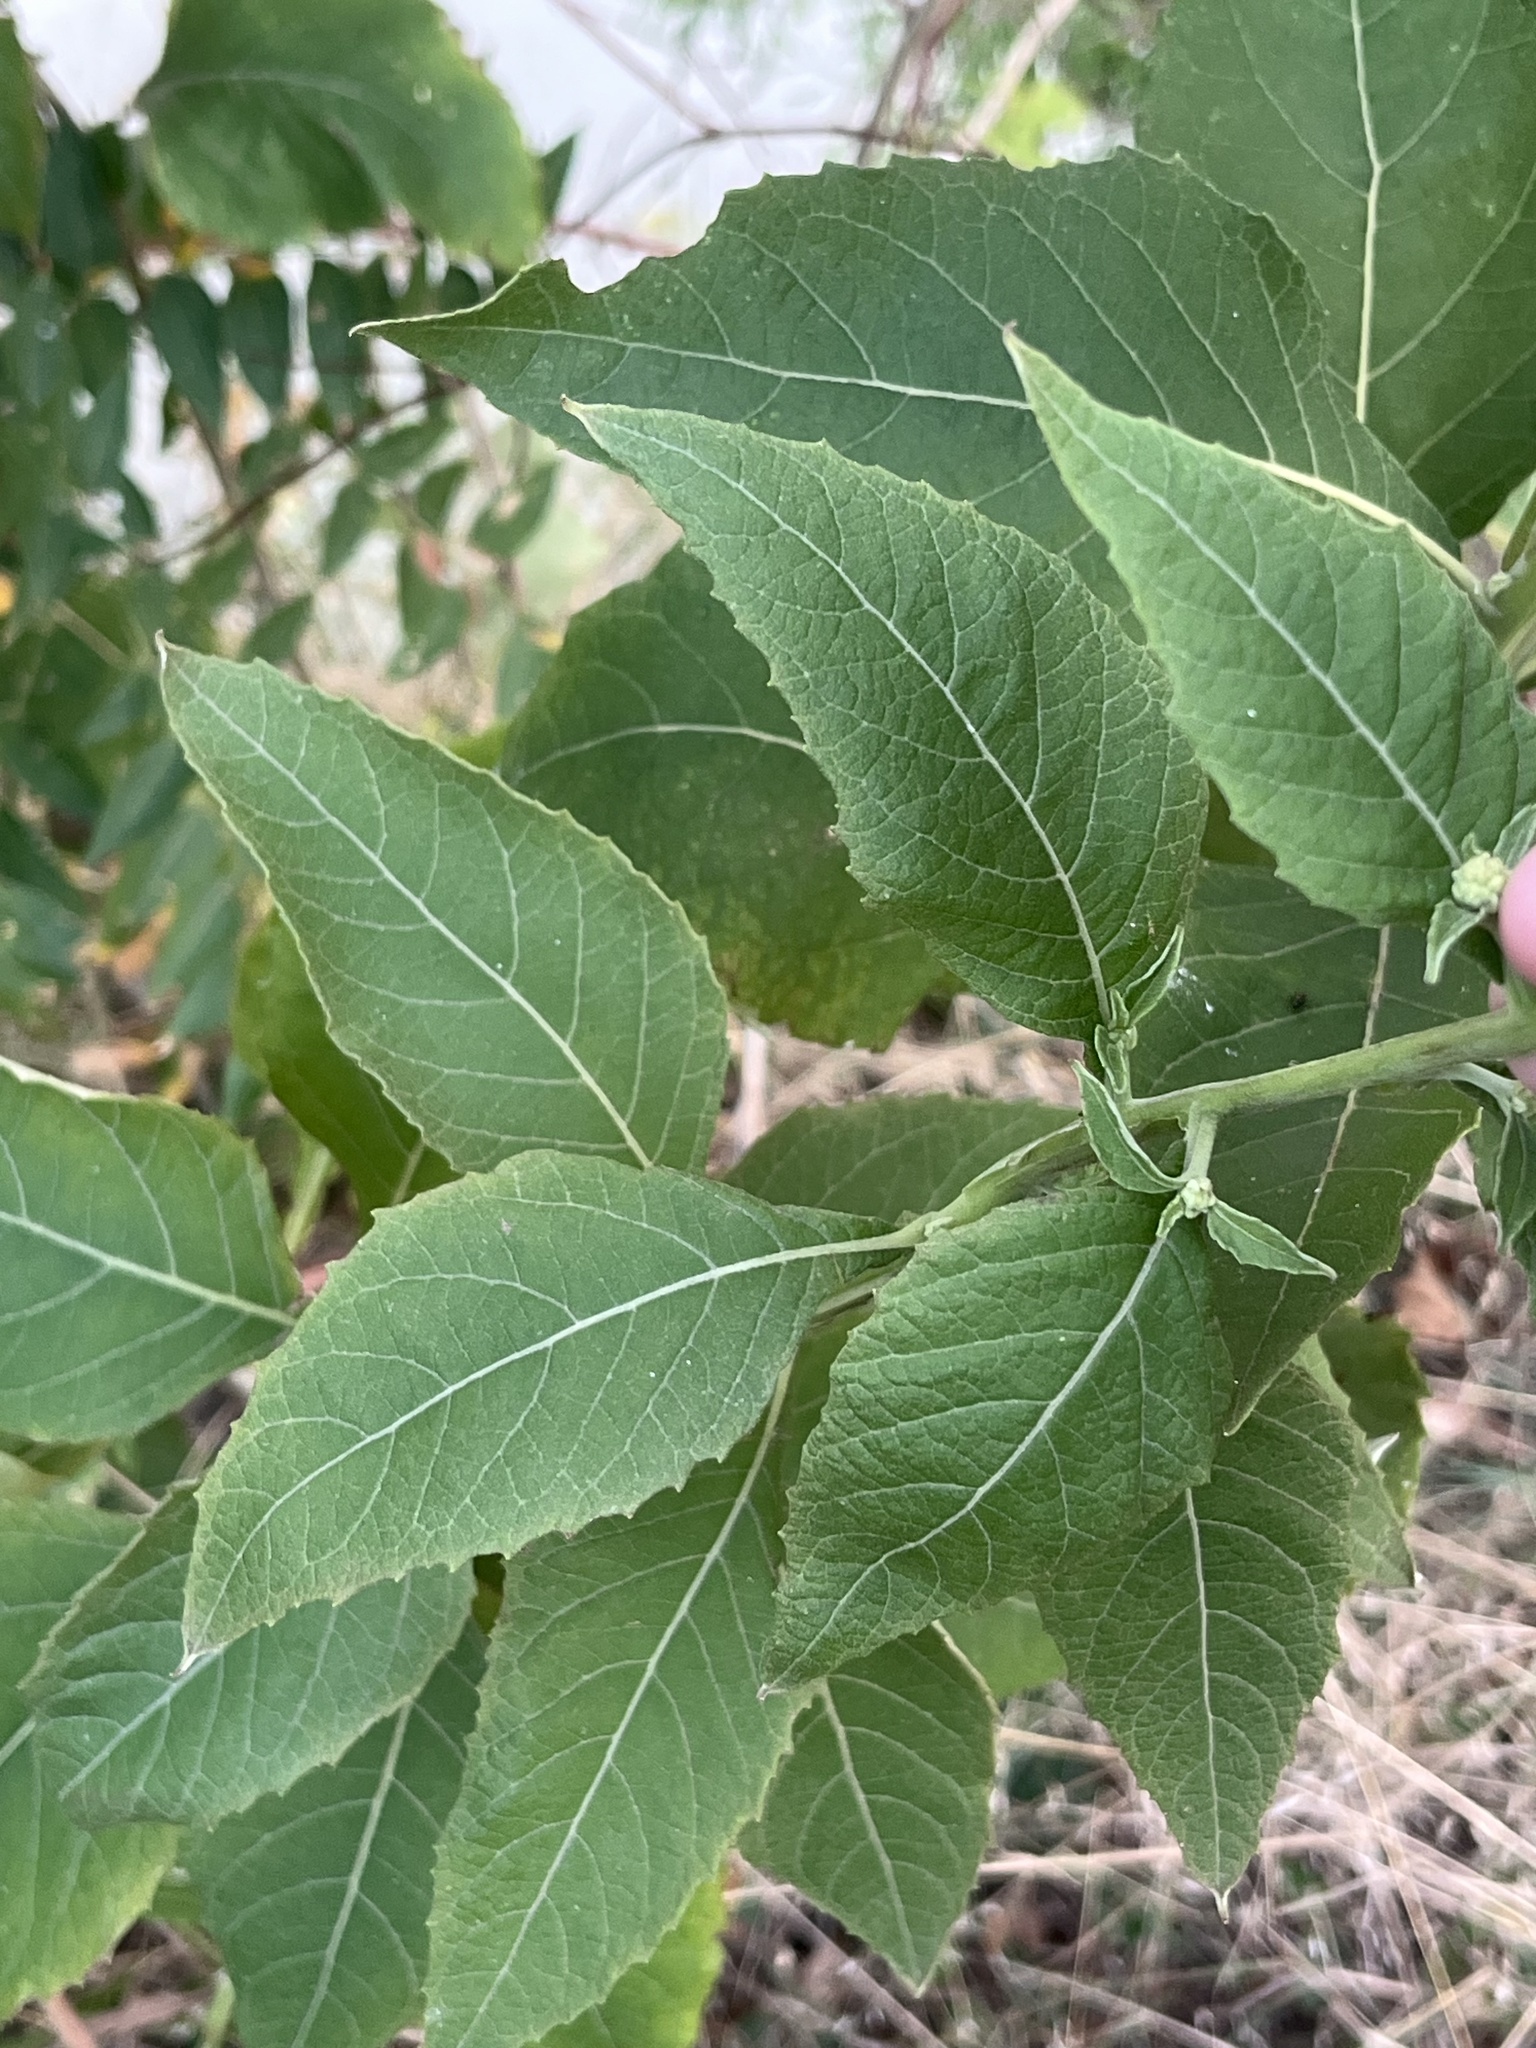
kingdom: Plantae
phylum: Tracheophyta
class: Magnoliopsida
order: Asterales
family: Asteraceae
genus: Verbesina
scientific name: Verbesina virginica
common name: Frostweed
